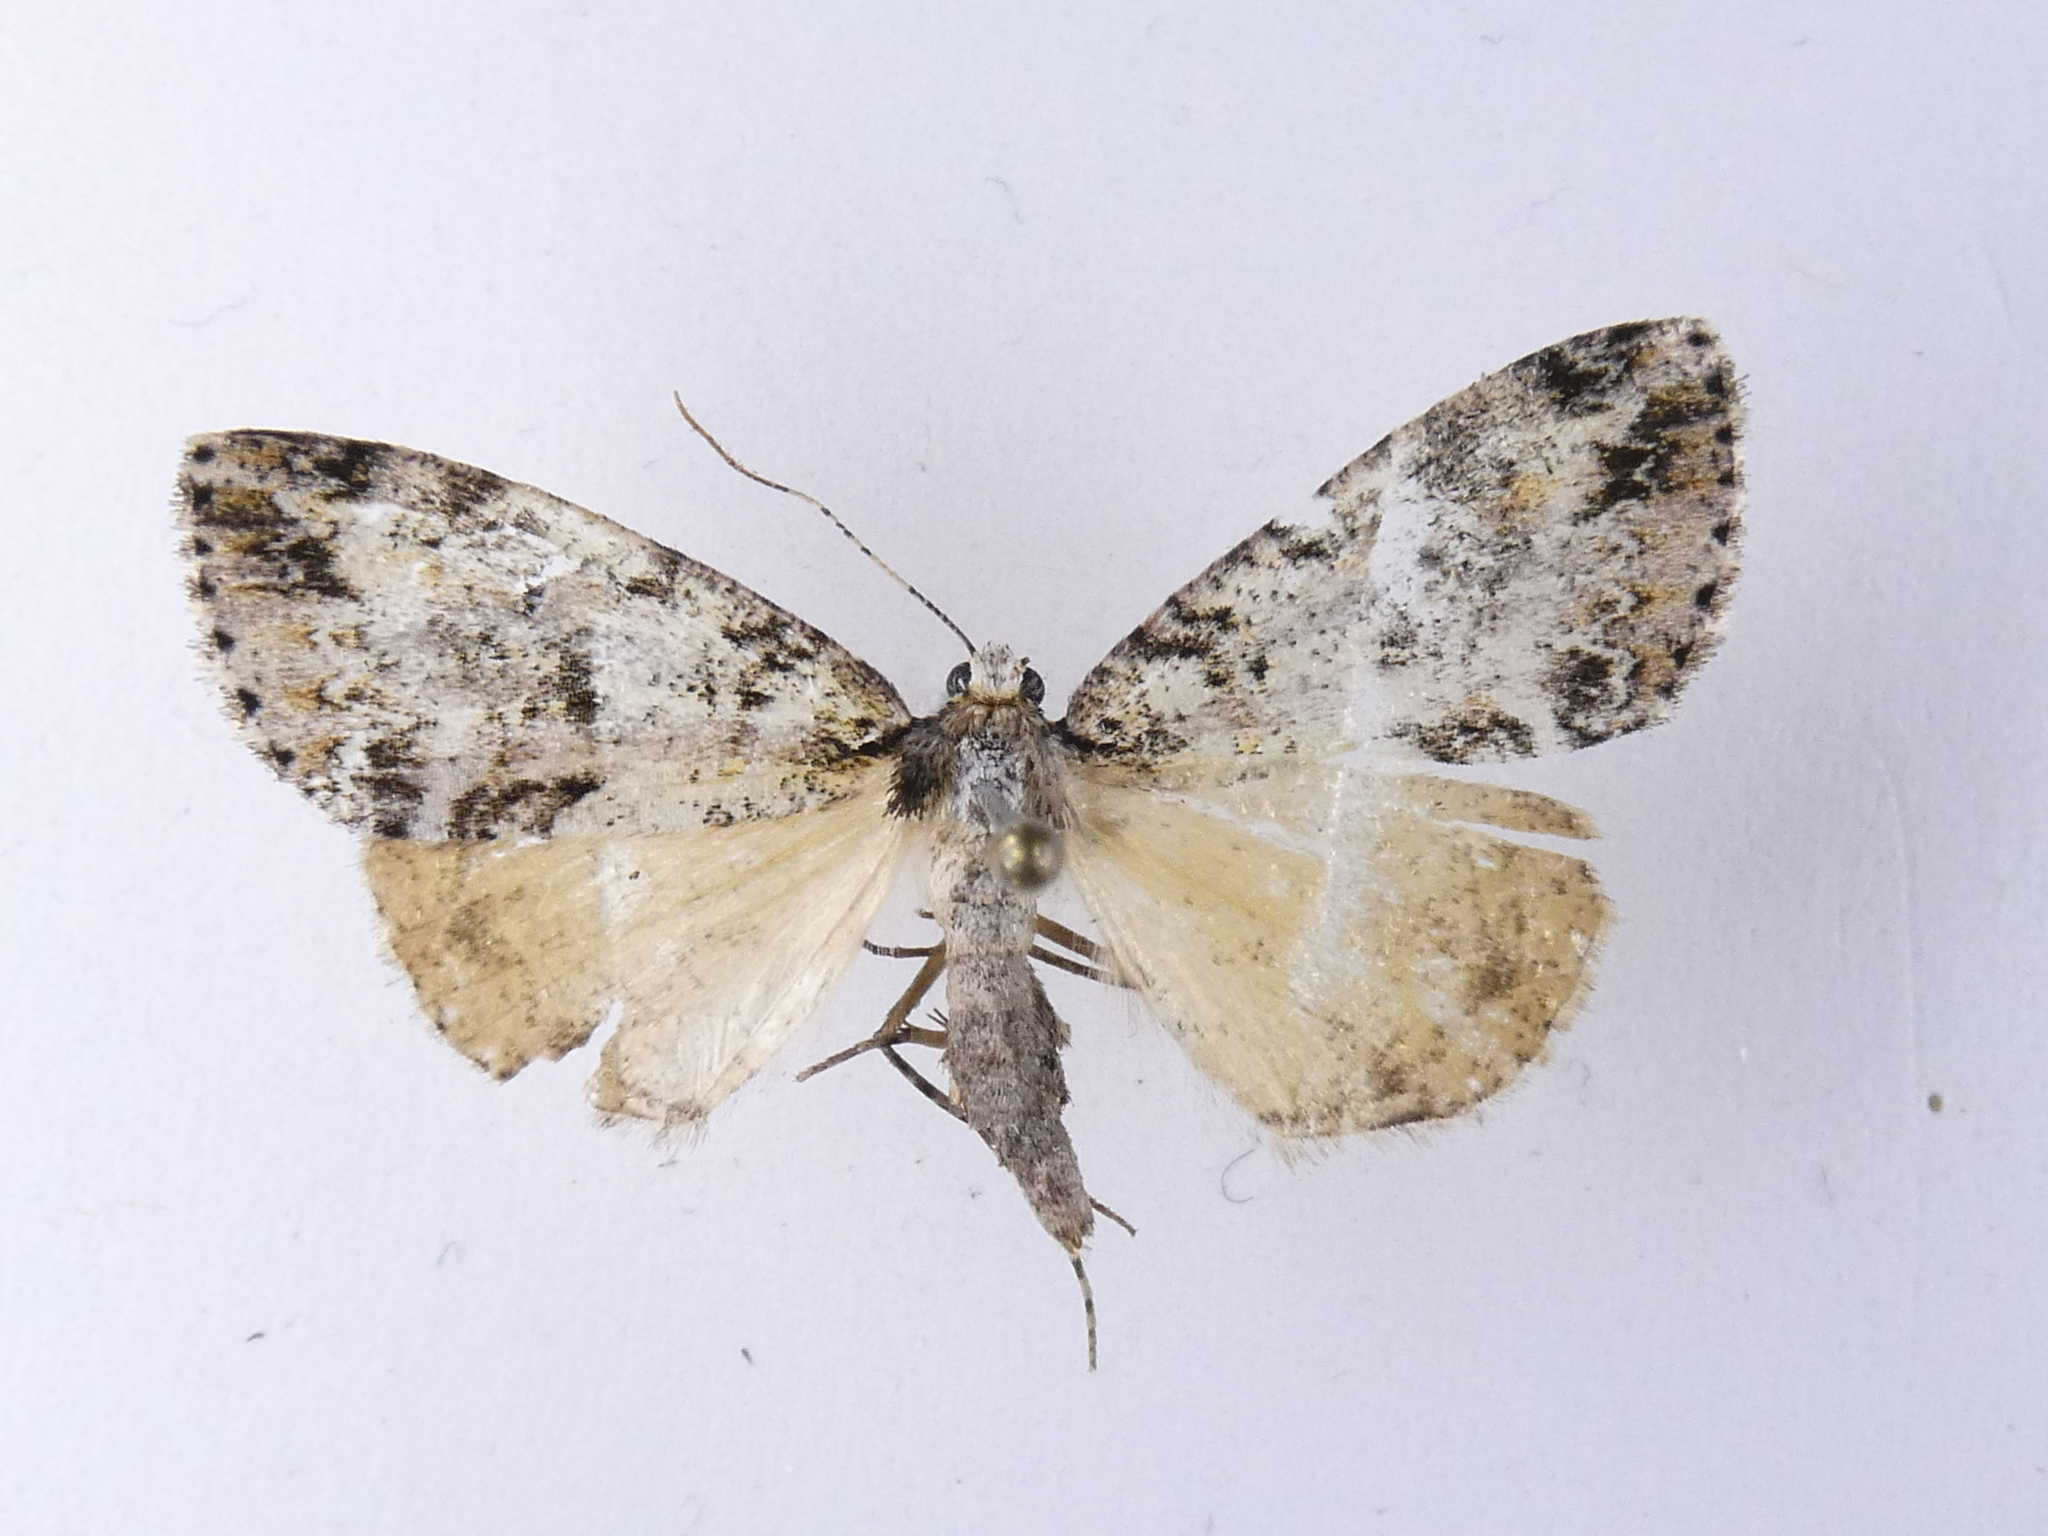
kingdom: Animalia
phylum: Arthropoda
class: Insecta
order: Lepidoptera
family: Geometridae
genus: Pseudocoremia
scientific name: Pseudocoremia suavis
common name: Common forest looper
